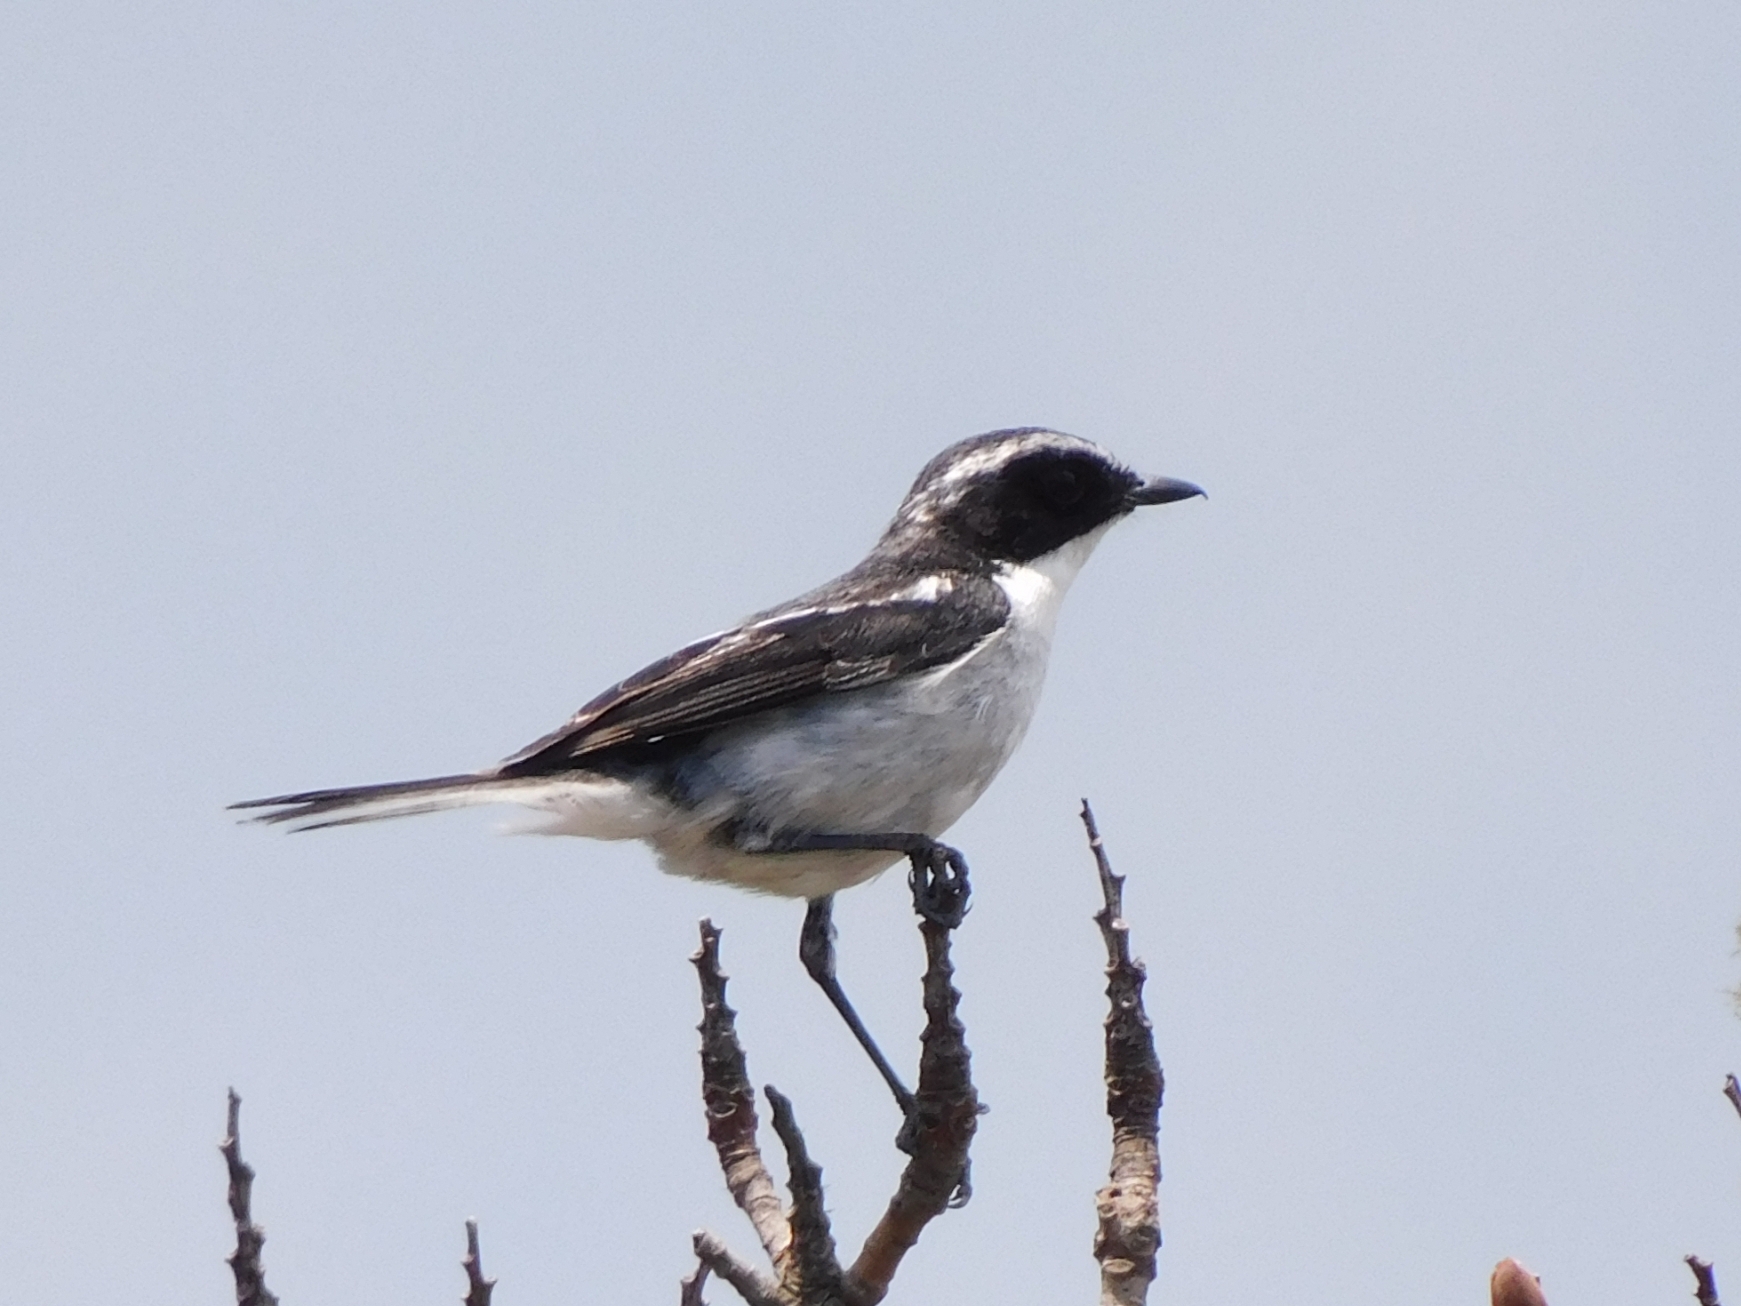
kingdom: Animalia
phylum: Chordata
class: Aves
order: Passeriformes
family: Muscicapidae
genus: Saxicola
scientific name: Saxicola ferreus
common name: Grey bush chat
